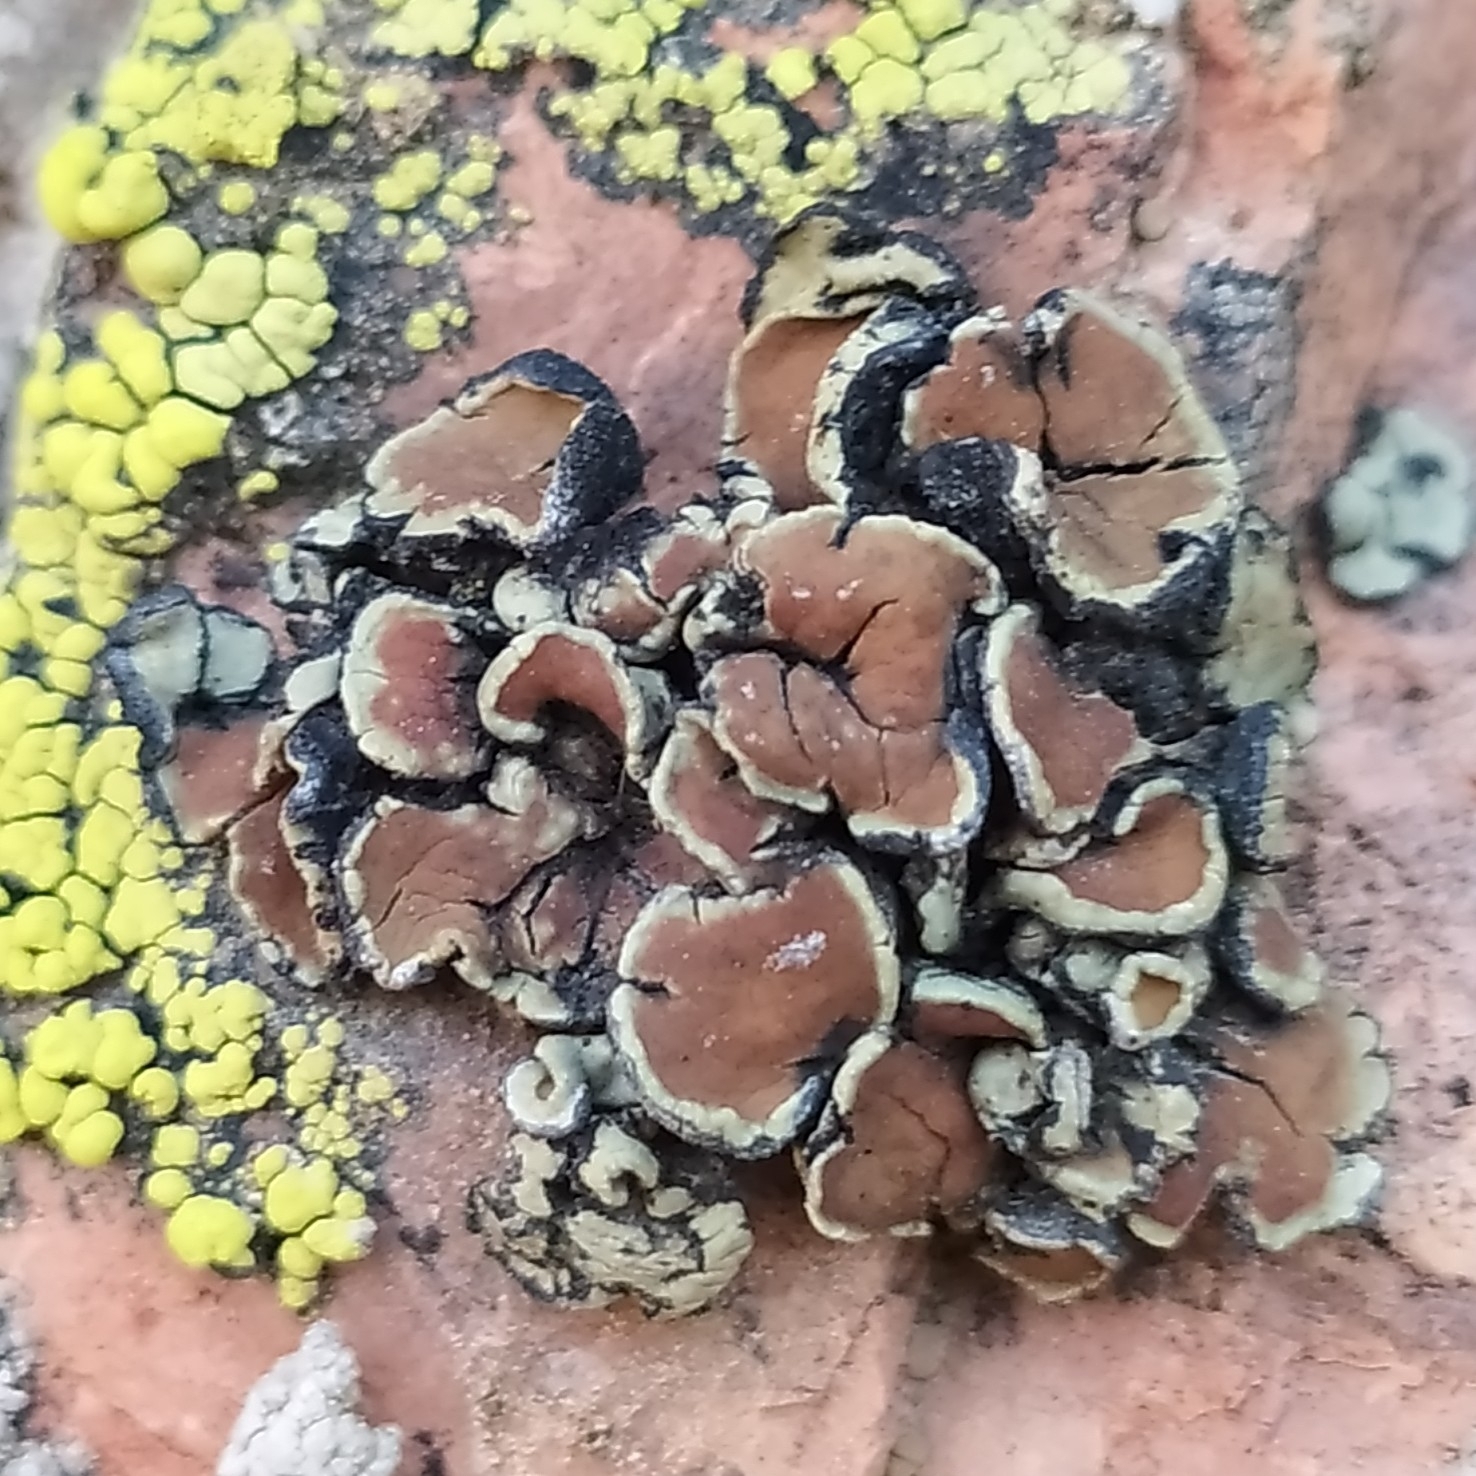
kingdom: Fungi
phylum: Ascomycota
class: Lecanoromycetes
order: Lecanorales
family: Lecanoraceae
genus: Protoparmeliopsis
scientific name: Protoparmeliopsis peltata
